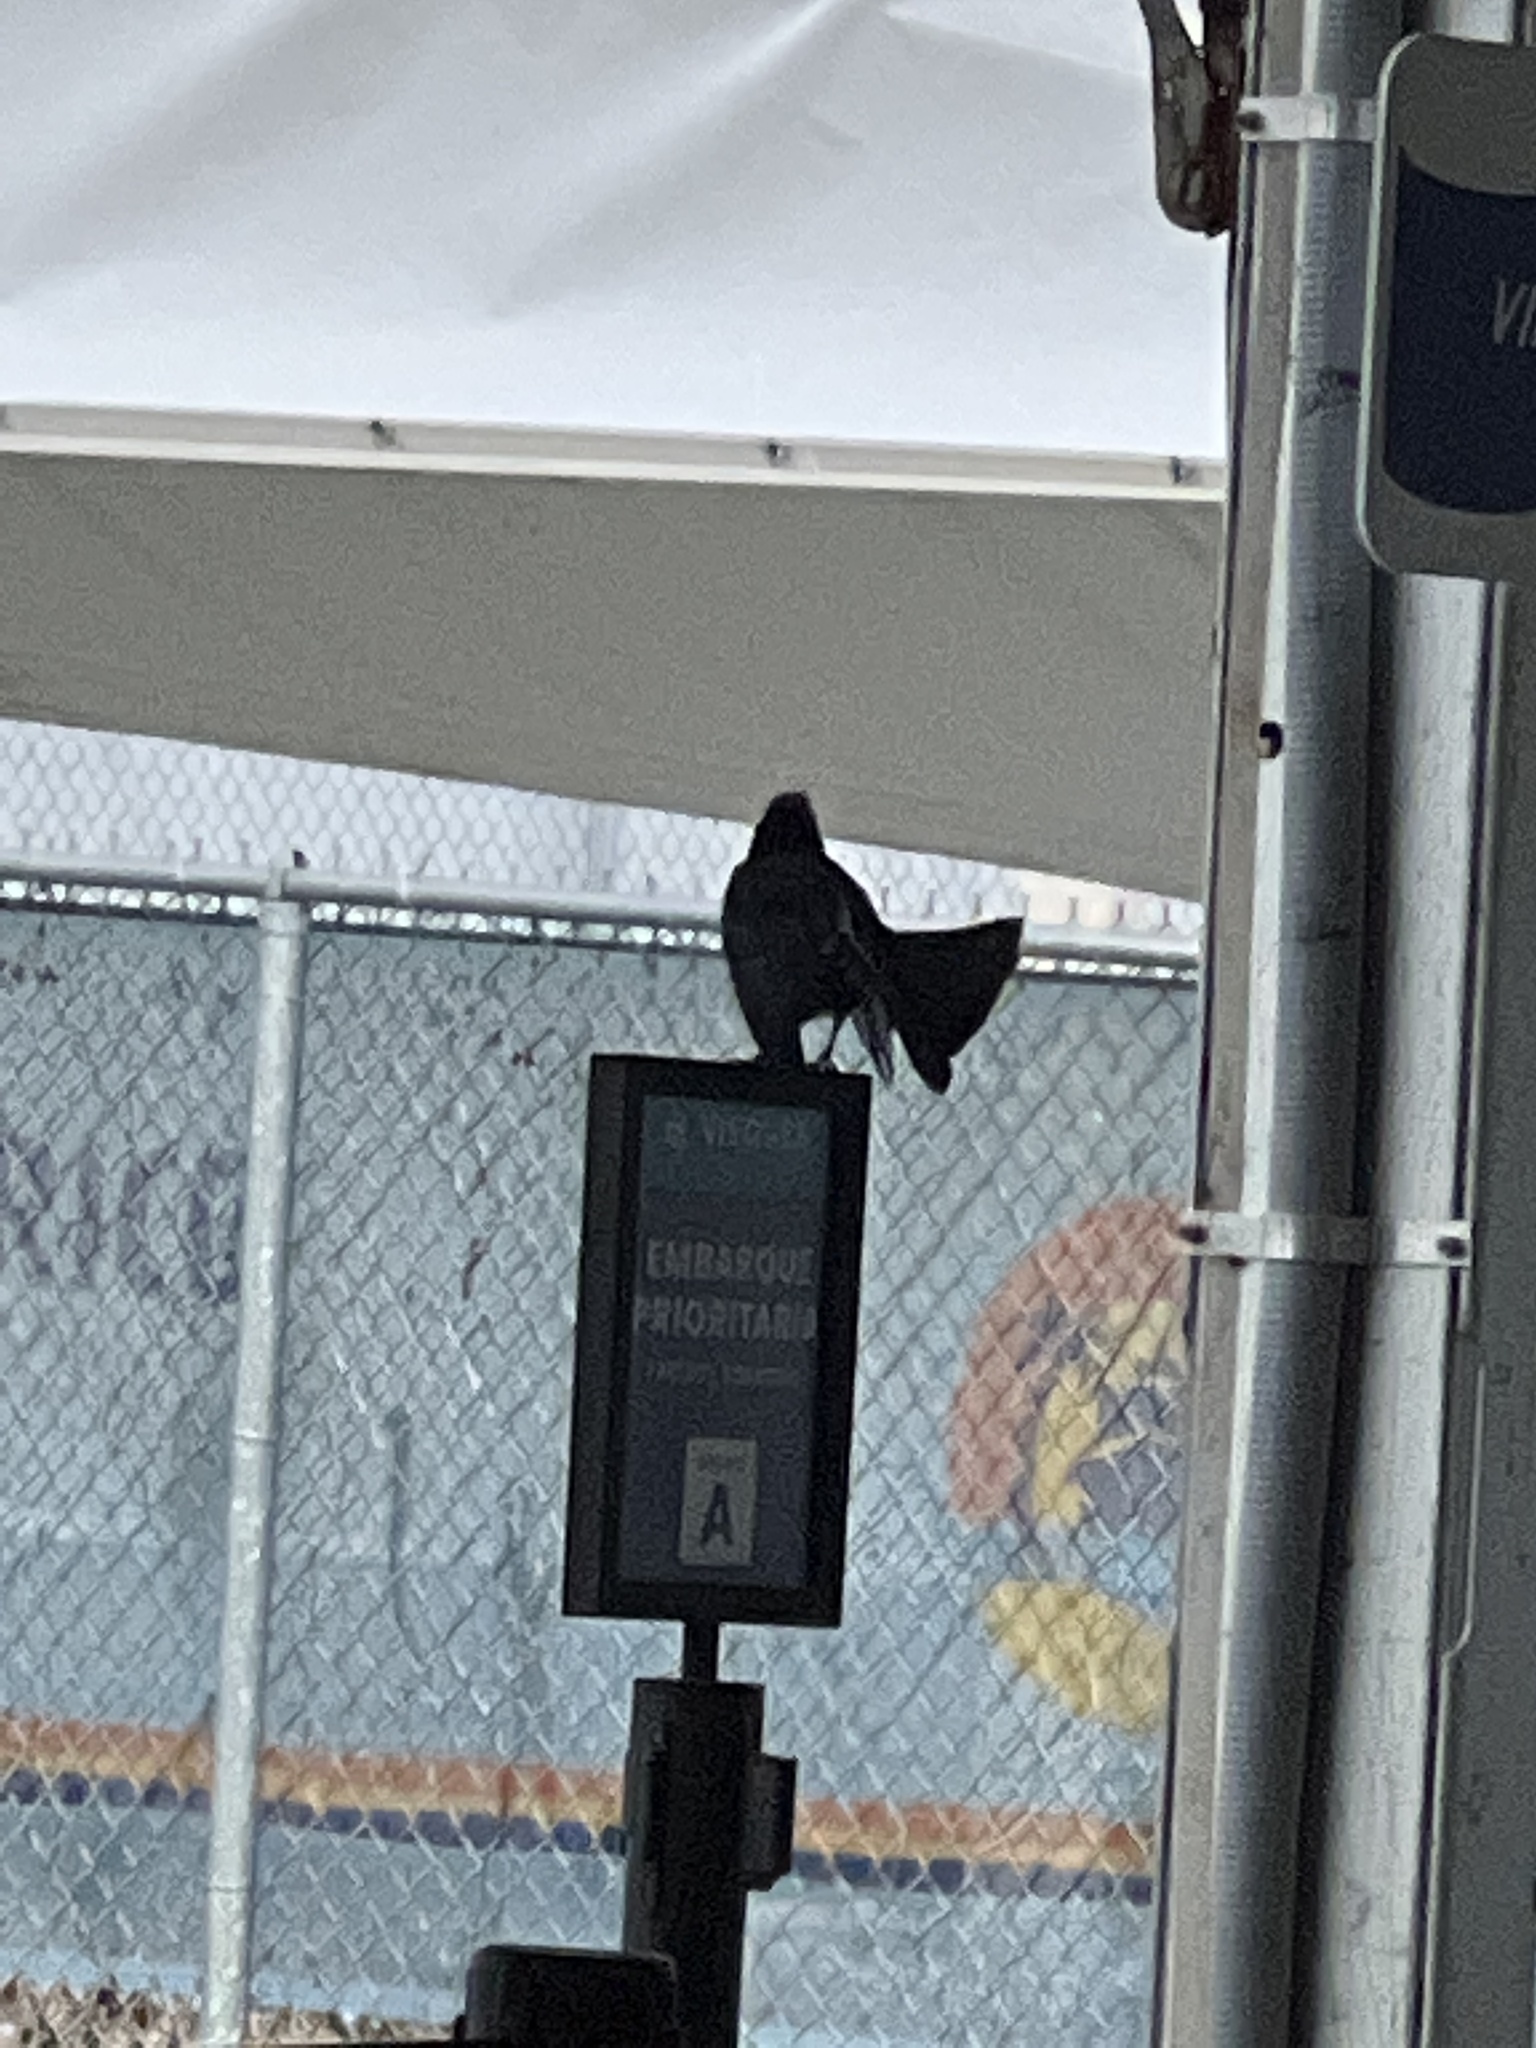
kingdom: Animalia
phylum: Chordata
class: Aves
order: Passeriformes
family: Icteridae
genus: Quiscalus
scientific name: Quiscalus niger
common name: Greater antillean grackle
